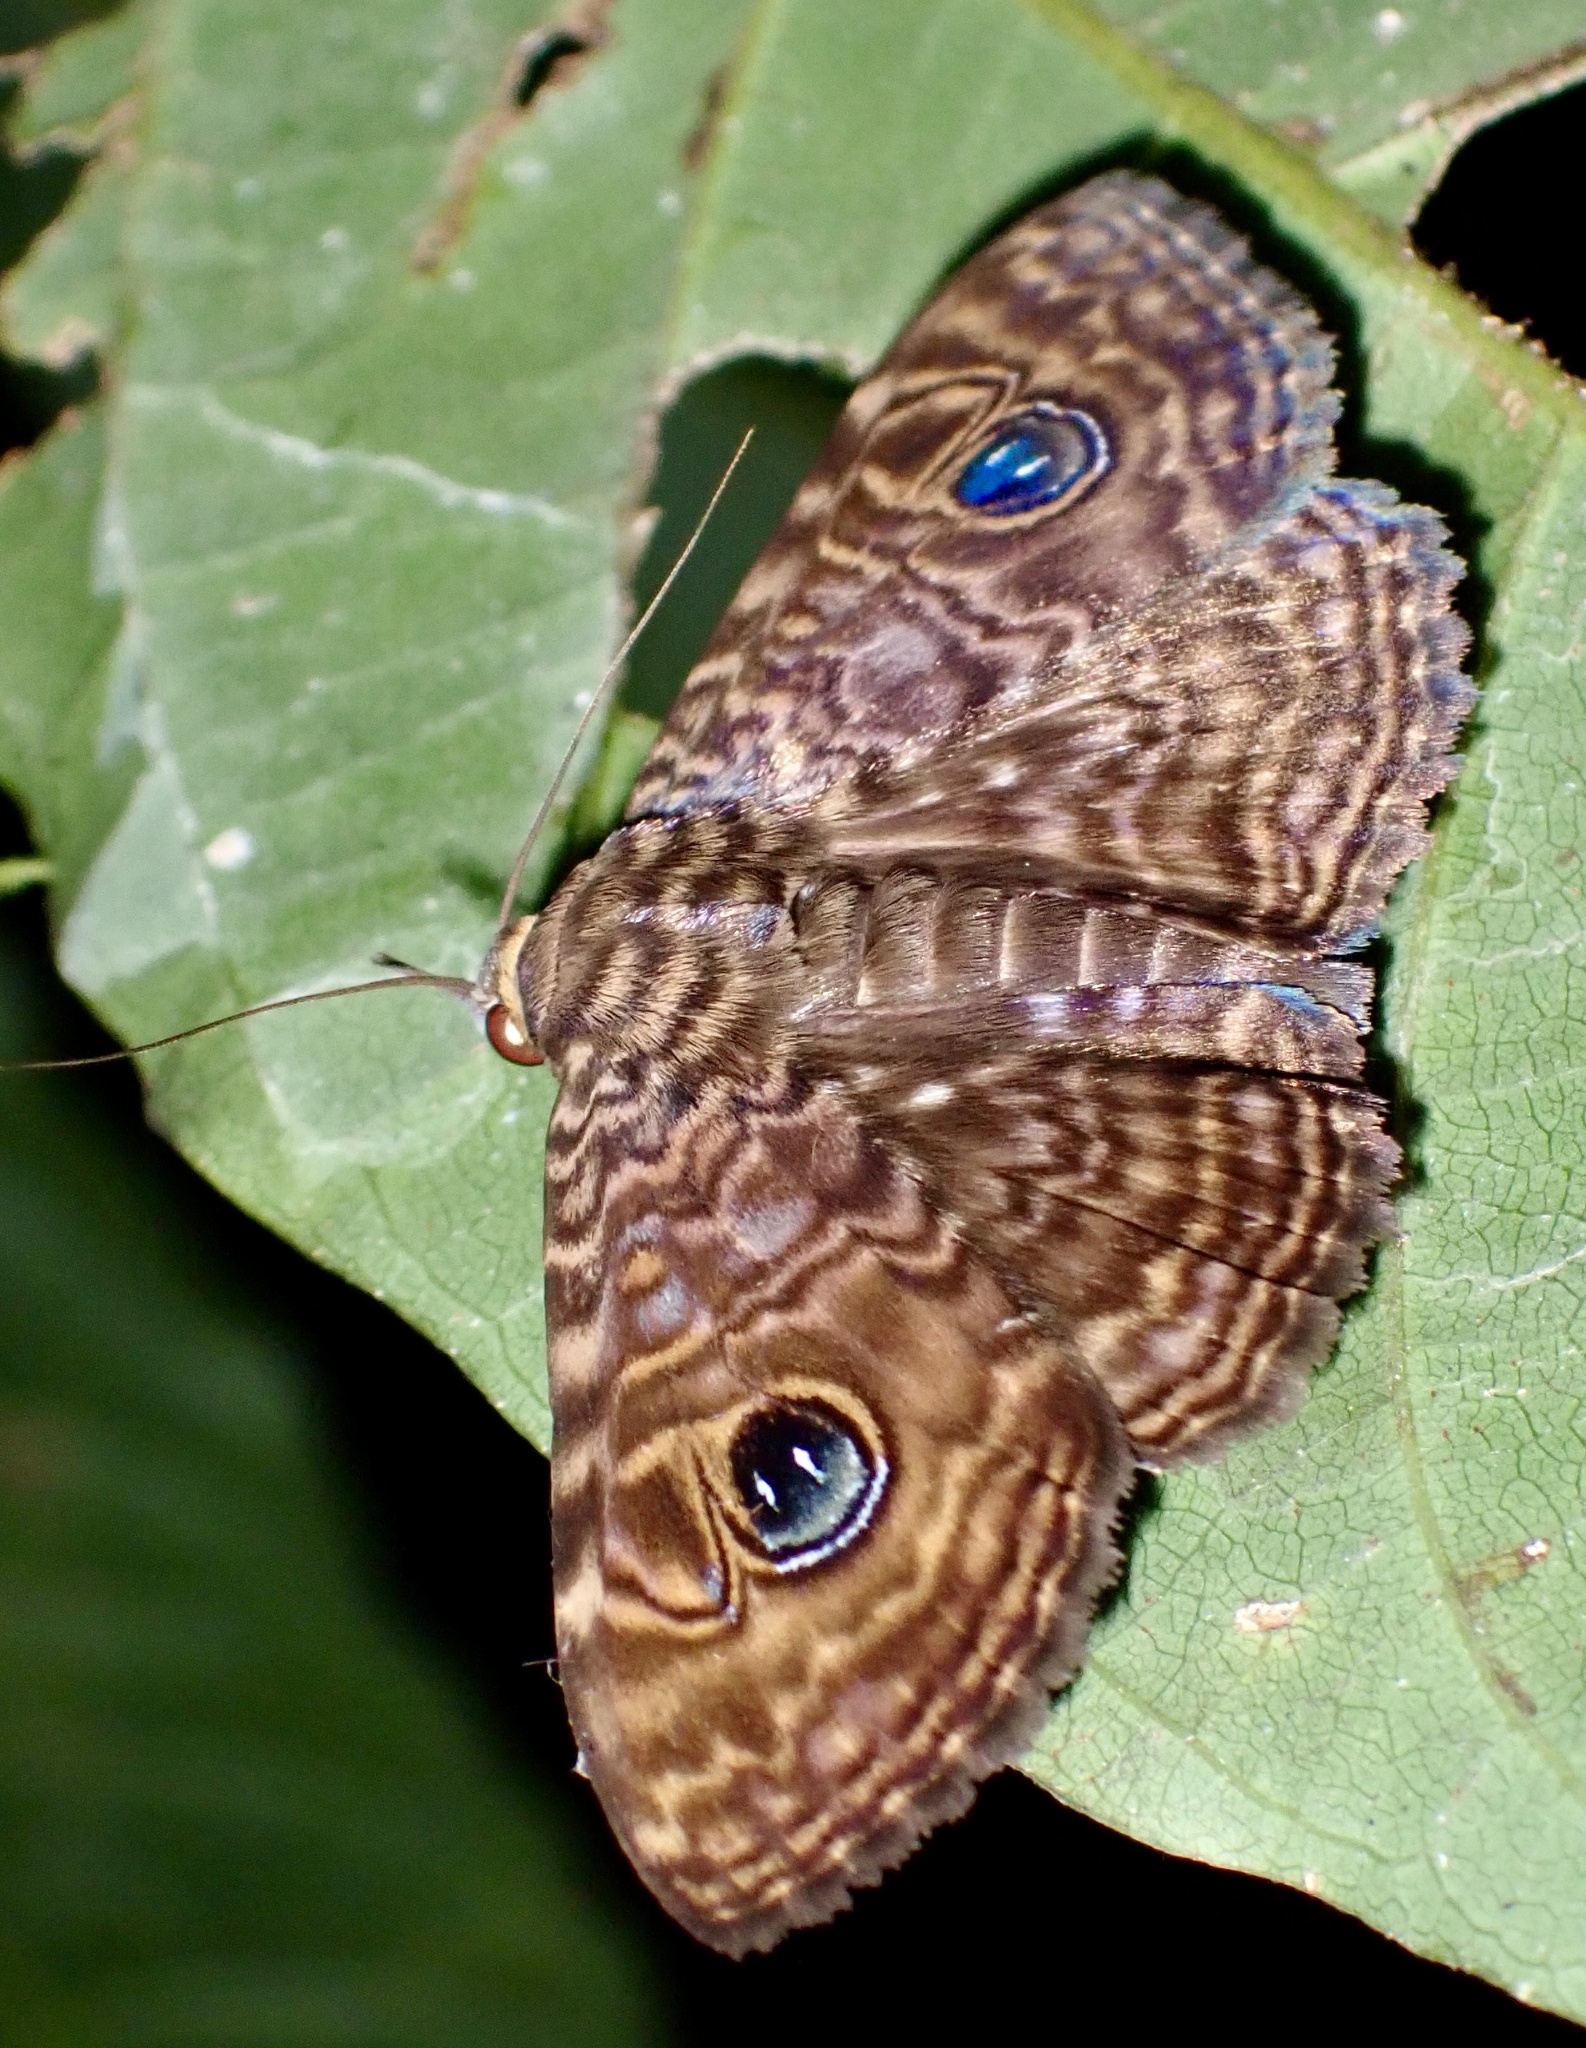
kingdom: Animalia
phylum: Arthropoda
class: Insecta
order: Lepidoptera
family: Erebidae
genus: Speiredonia
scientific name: Speiredonia
